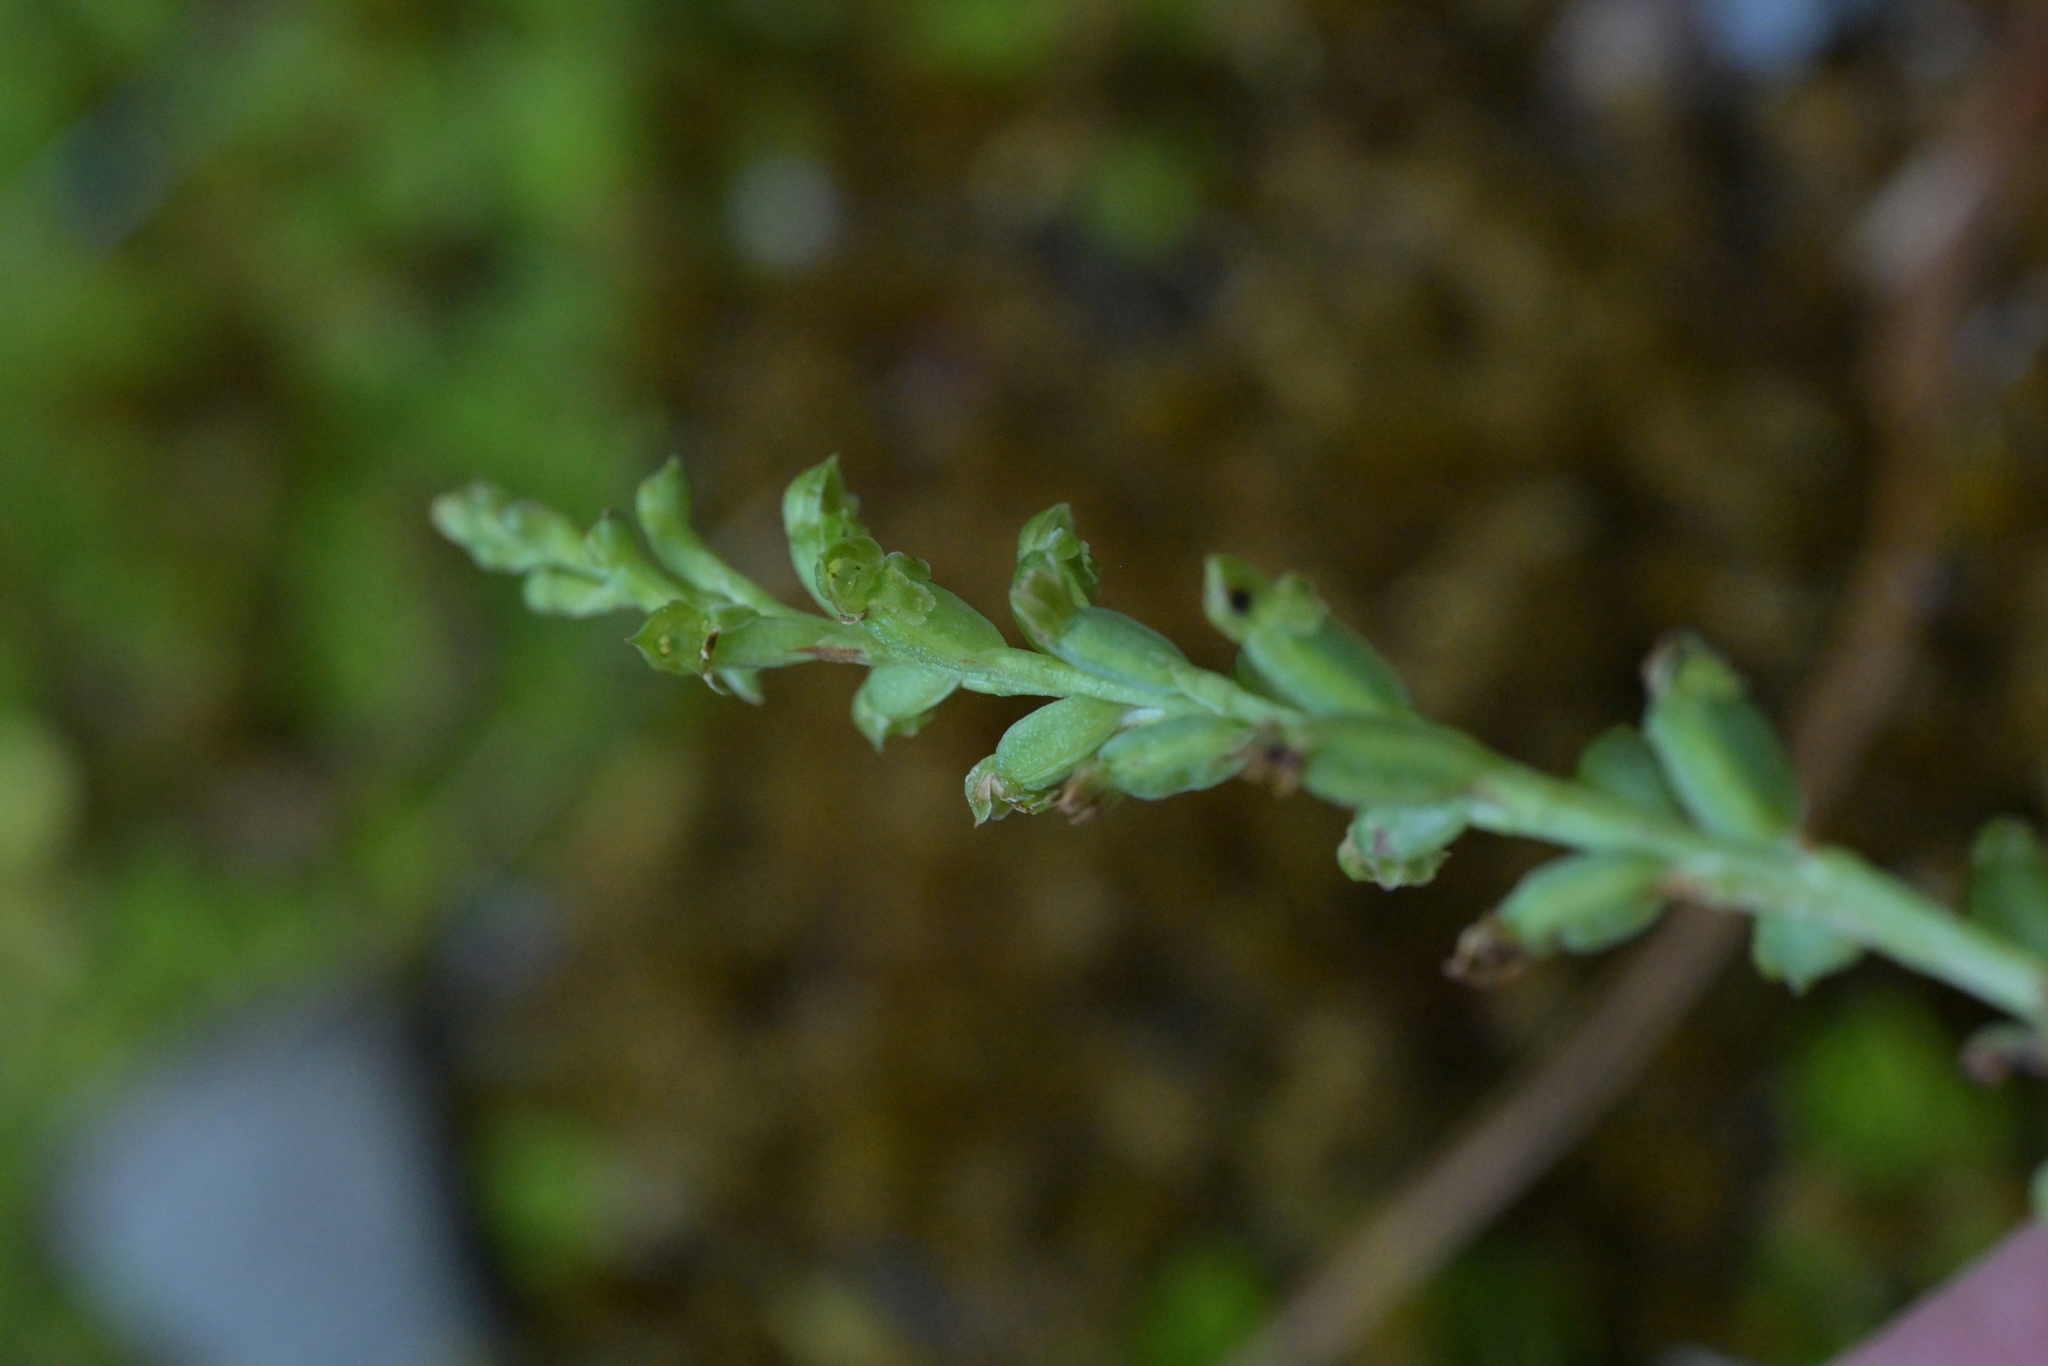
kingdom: Plantae
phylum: Tracheophyta
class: Liliopsida
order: Asparagales
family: Orchidaceae
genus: Microtis
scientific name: Microtis unifolia
